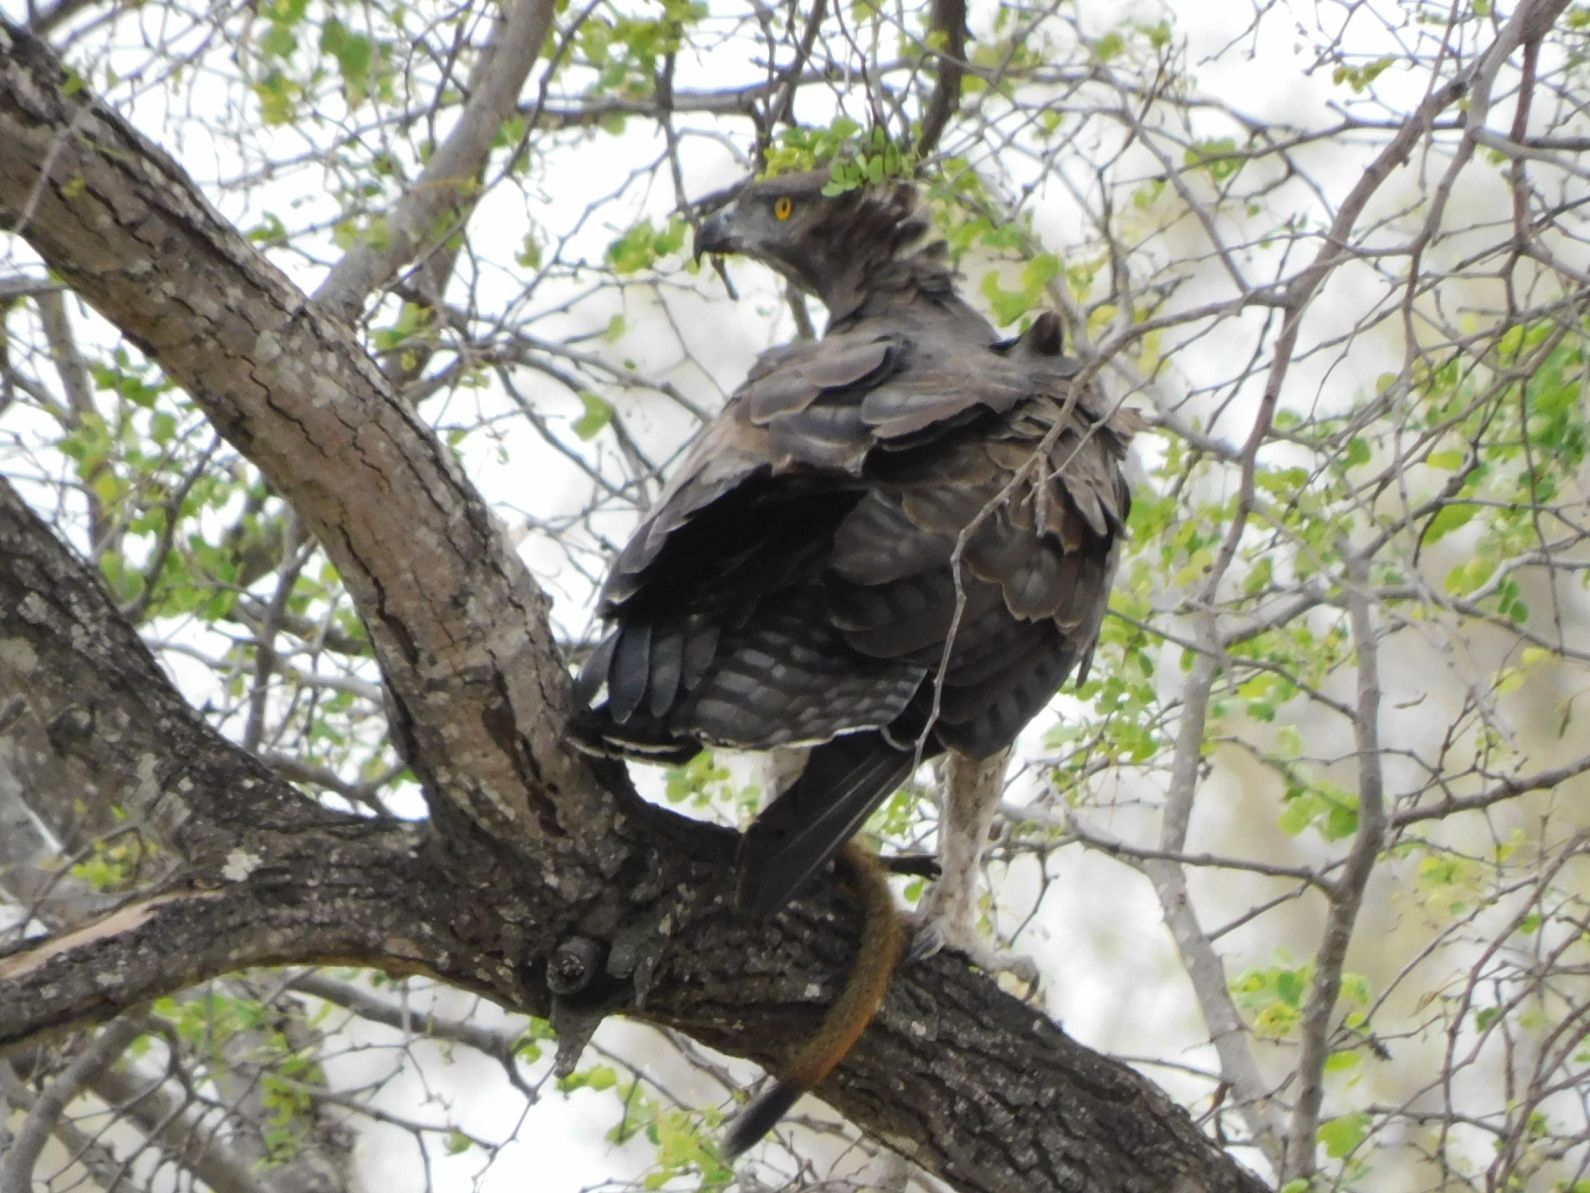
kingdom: Animalia
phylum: Chordata
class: Aves
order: Accipitriformes
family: Accipitridae
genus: Polemaetus
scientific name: Polemaetus bellicosus
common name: Martial eagle
